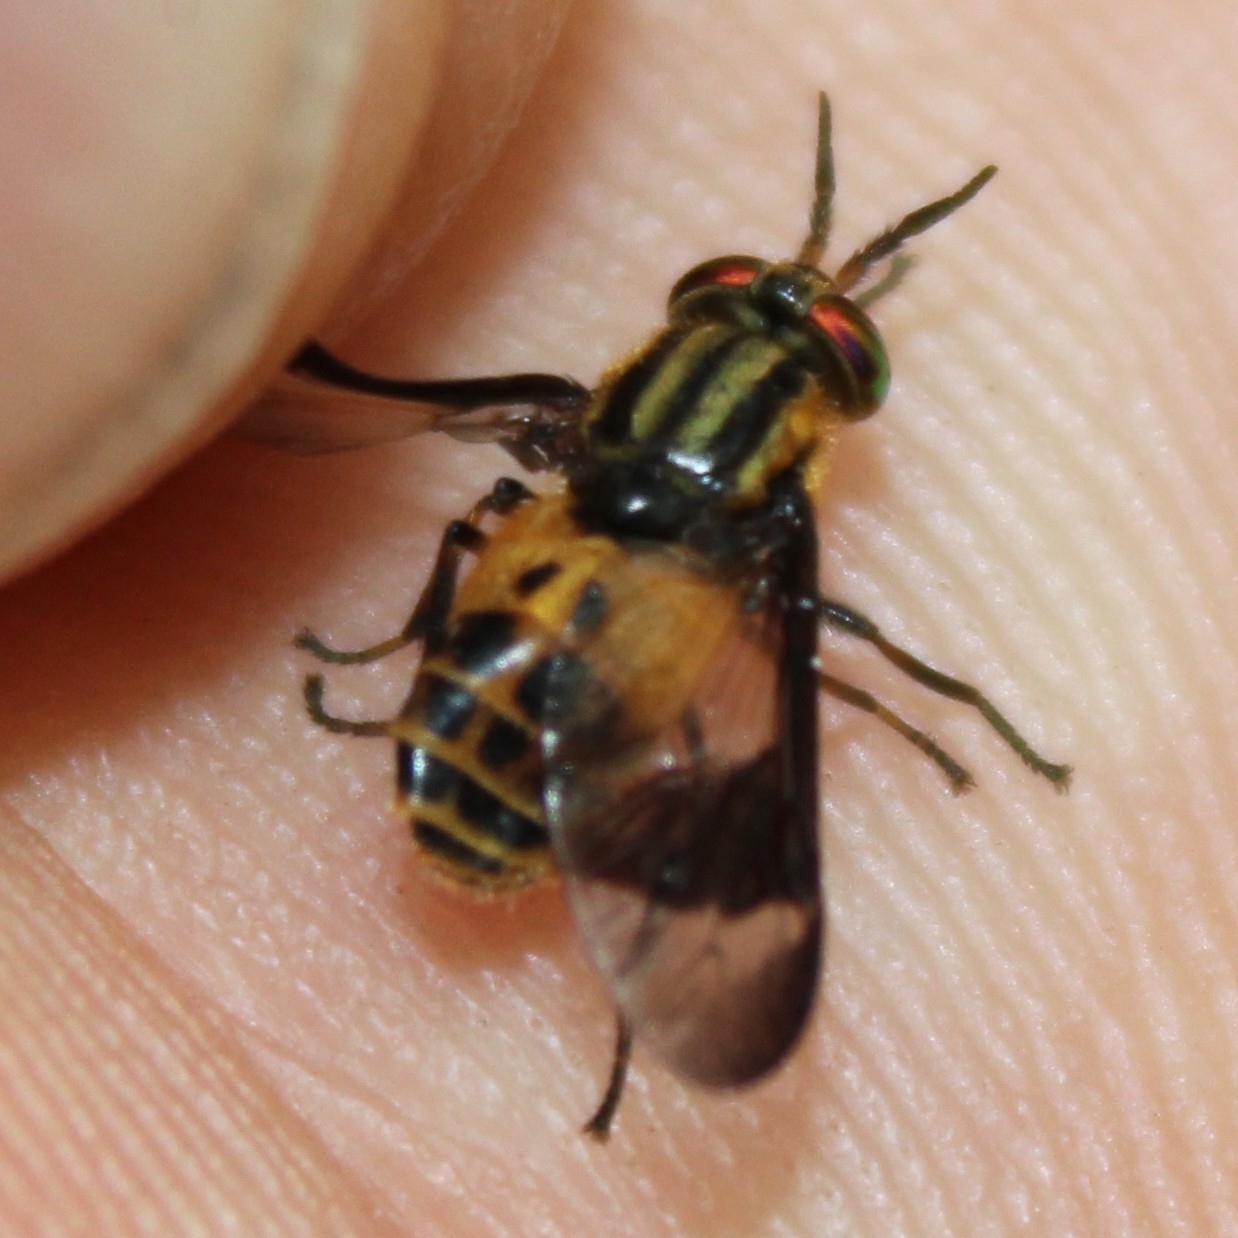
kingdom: Animalia
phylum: Arthropoda
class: Insecta
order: Diptera
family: Tabanidae
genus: Chrysops
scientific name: Chrysops geminatus
